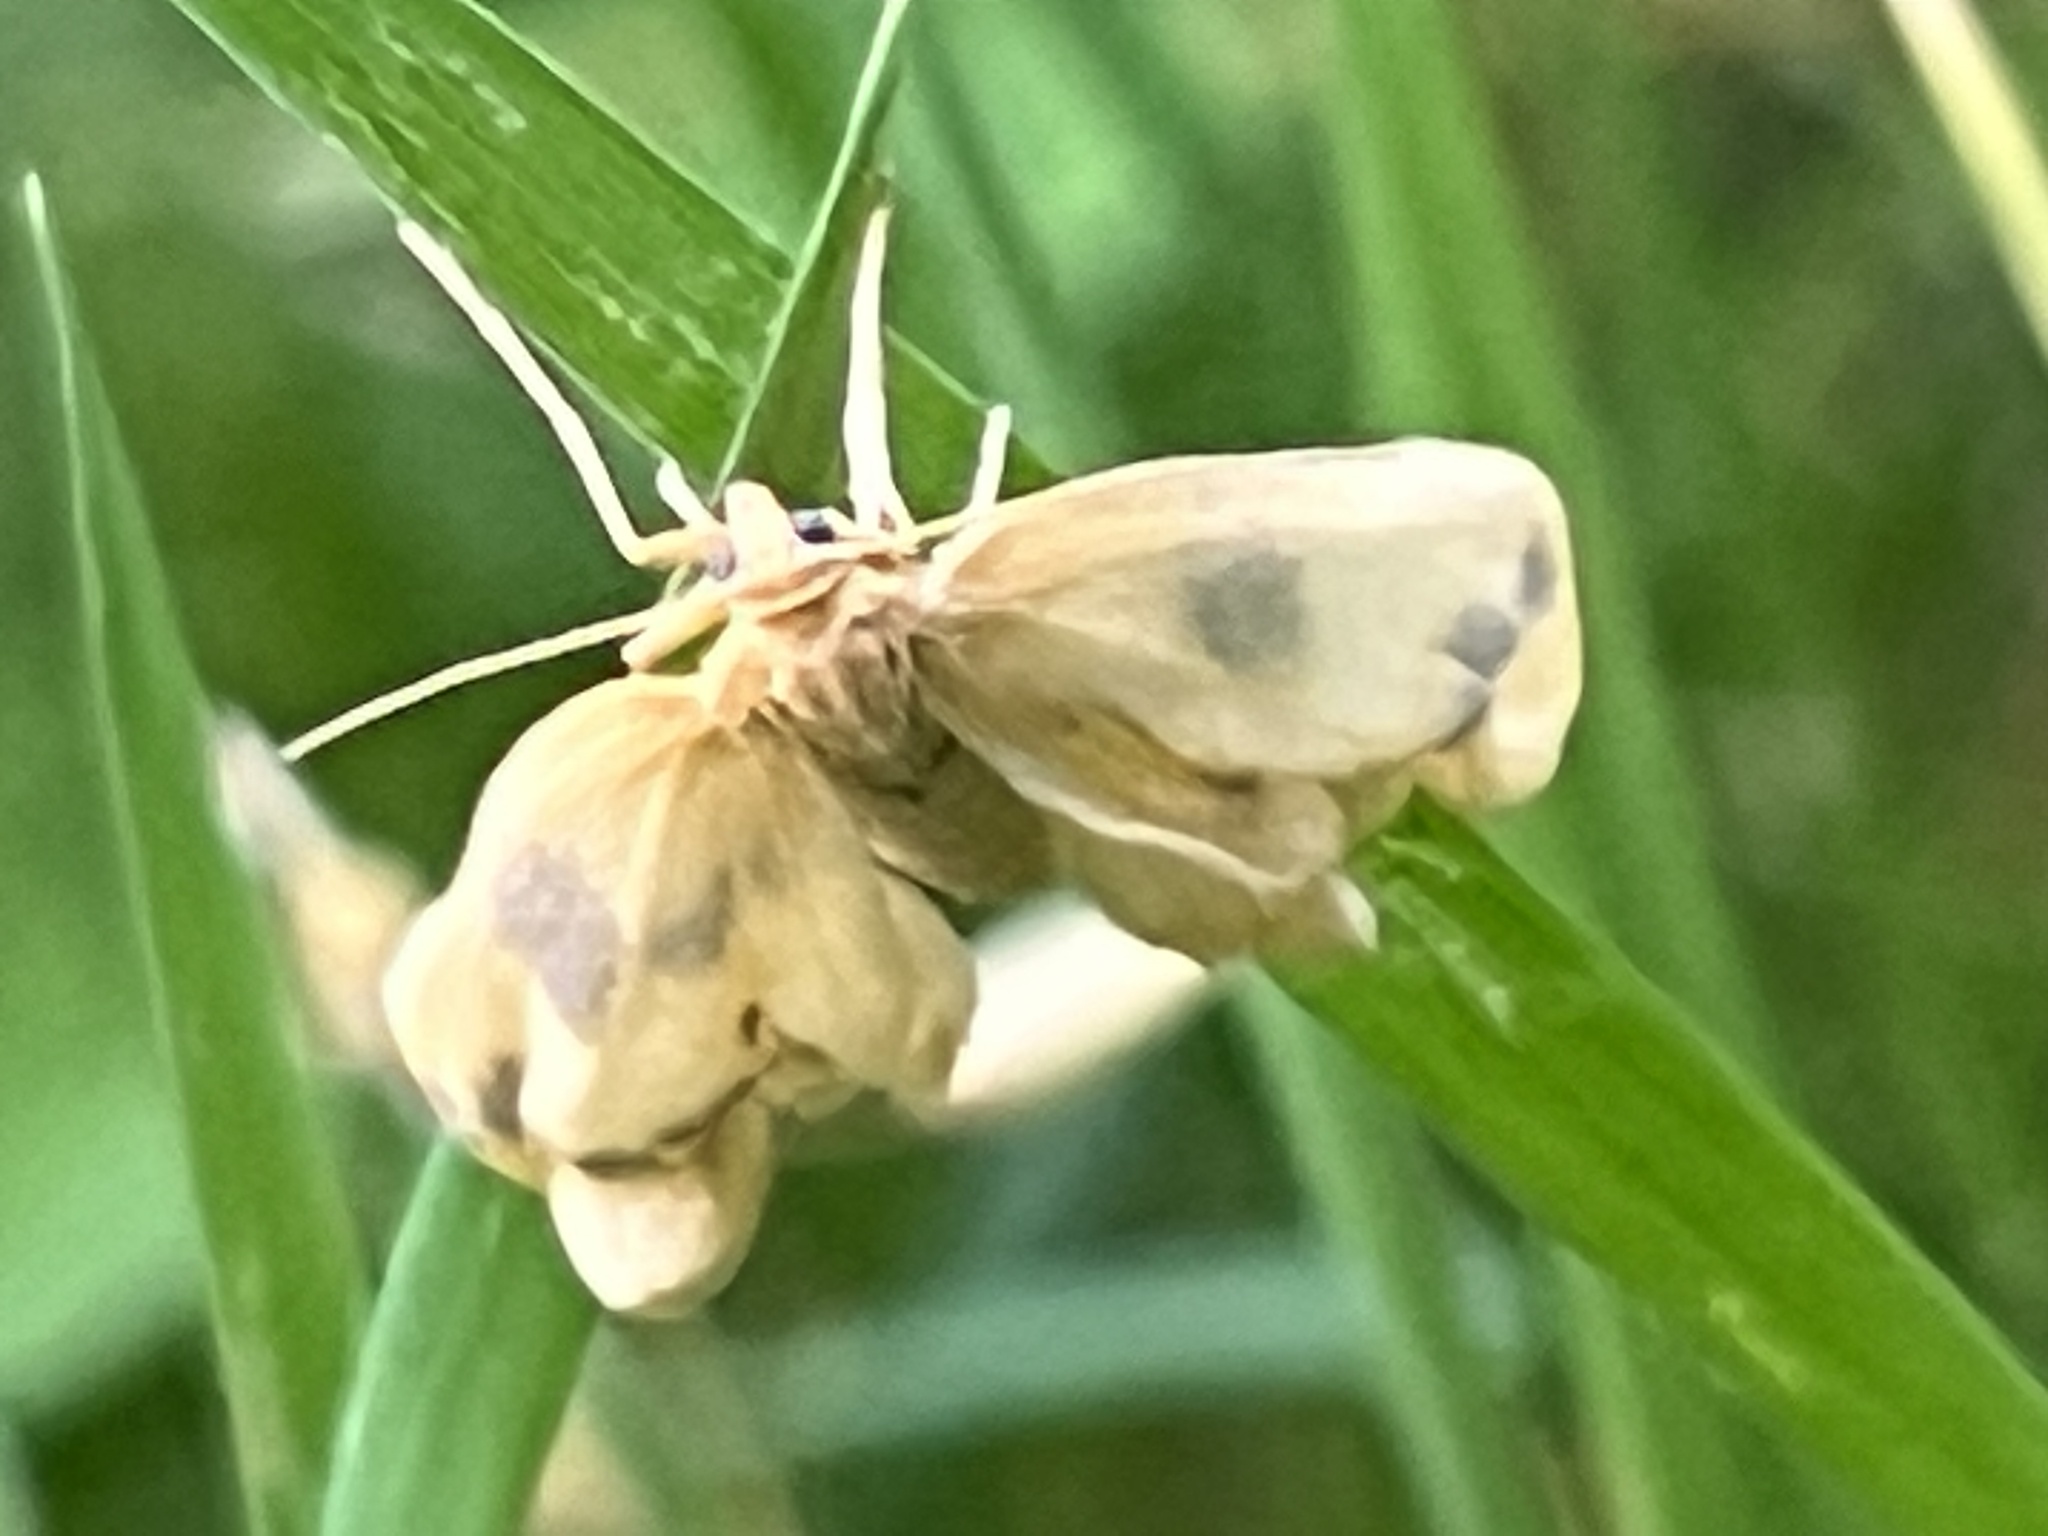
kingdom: Animalia
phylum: Arthropoda
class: Insecta
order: Lepidoptera
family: Geometridae
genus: Eubaphe
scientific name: Eubaphe mendica
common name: Beggar
